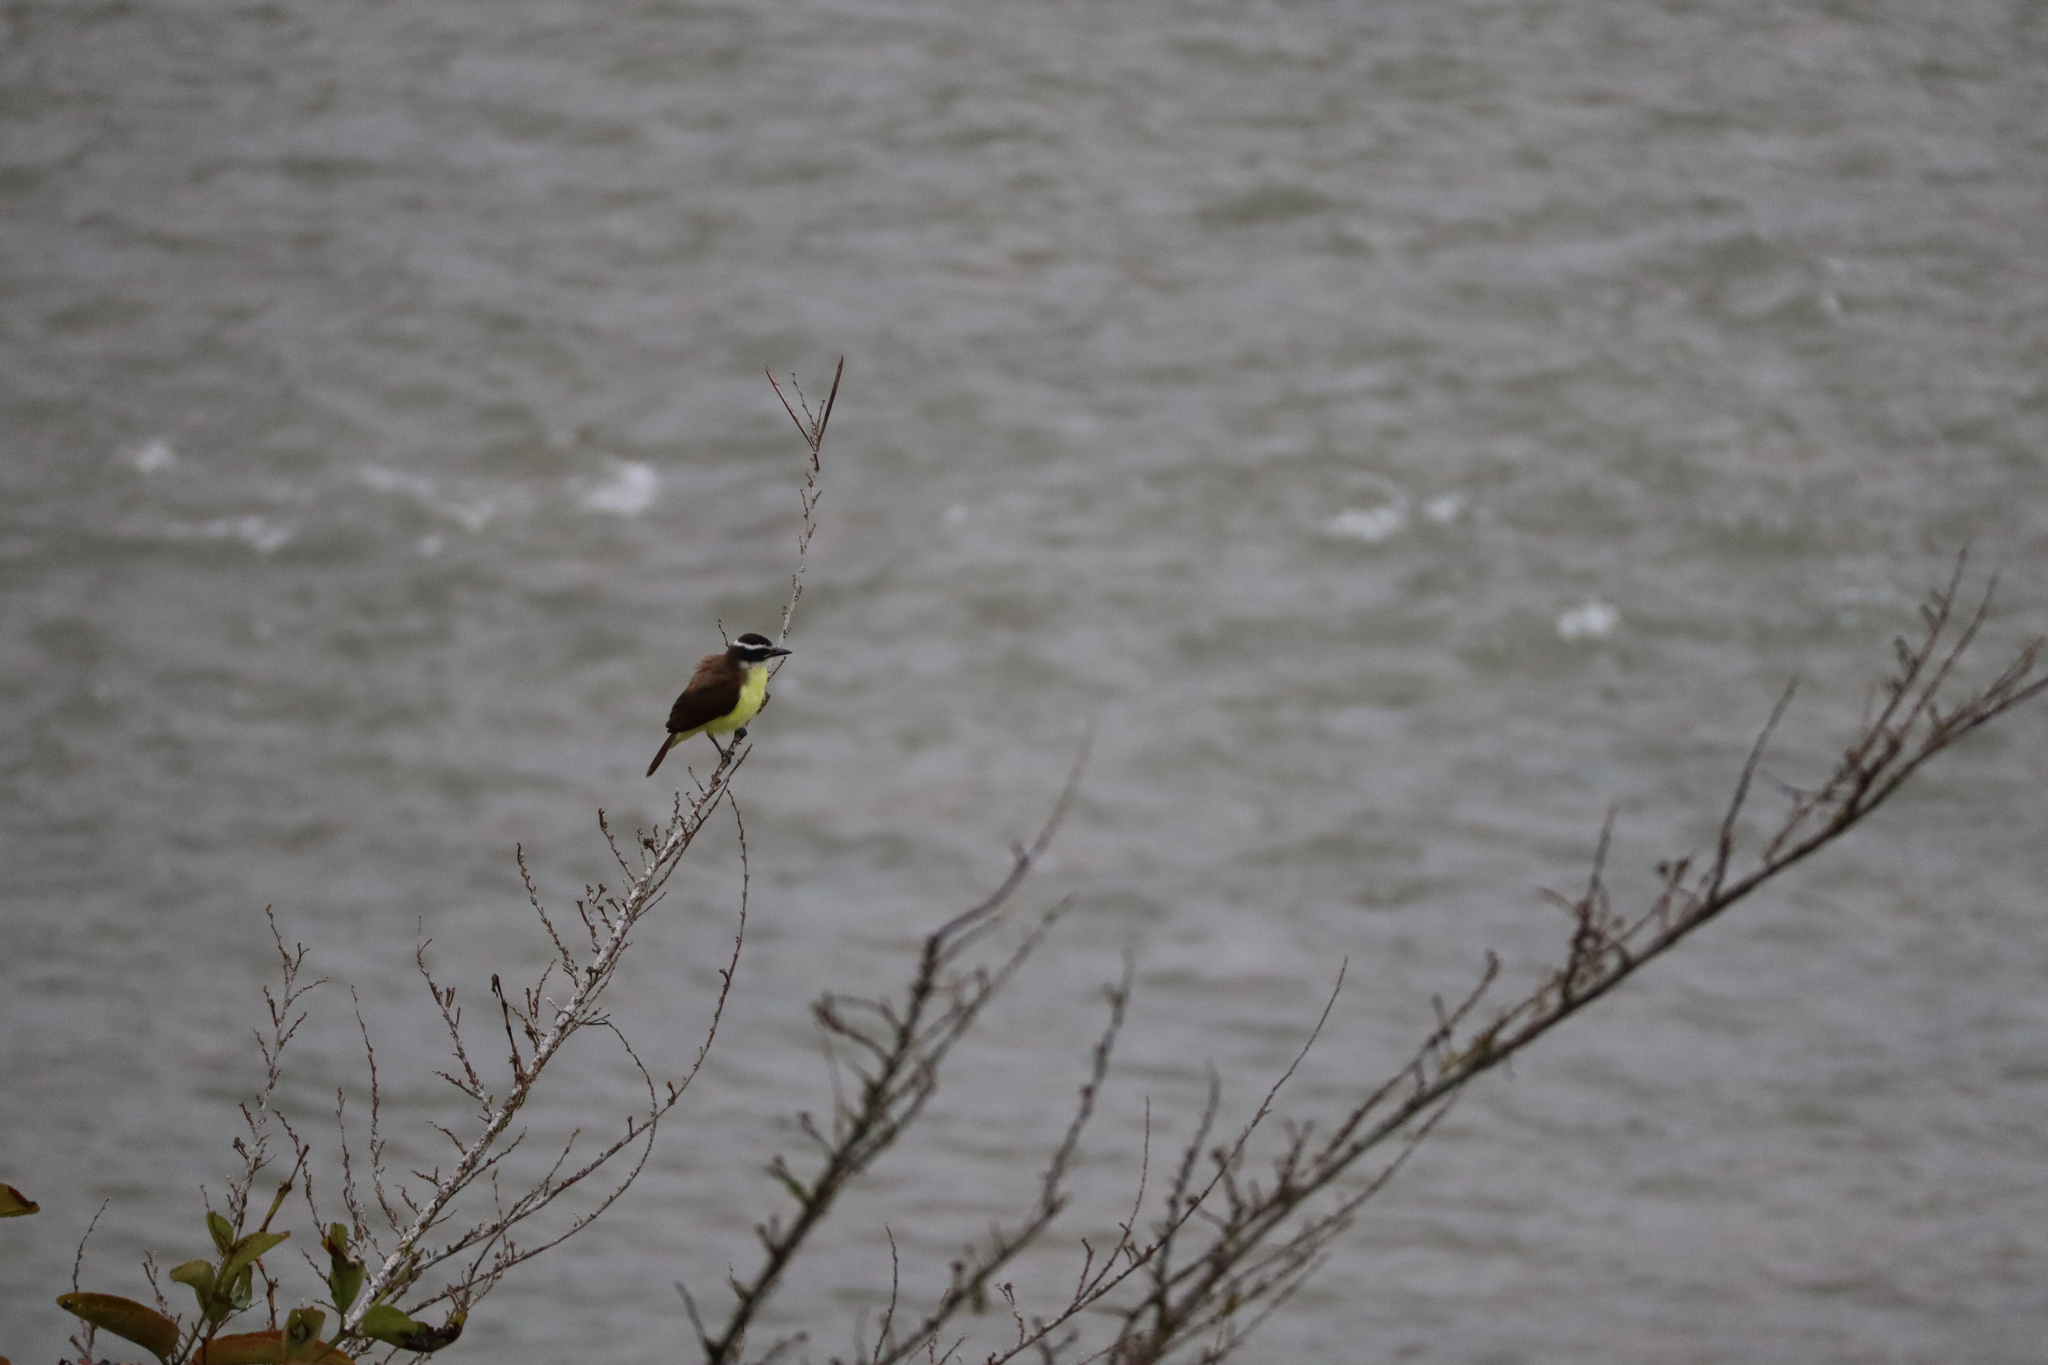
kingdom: Animalia
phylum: Chordata
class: Aves
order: Passeriformes
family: Tyrannidae
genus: Pitangus
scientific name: Pitangus sulphuratus
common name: Great kiskadee
